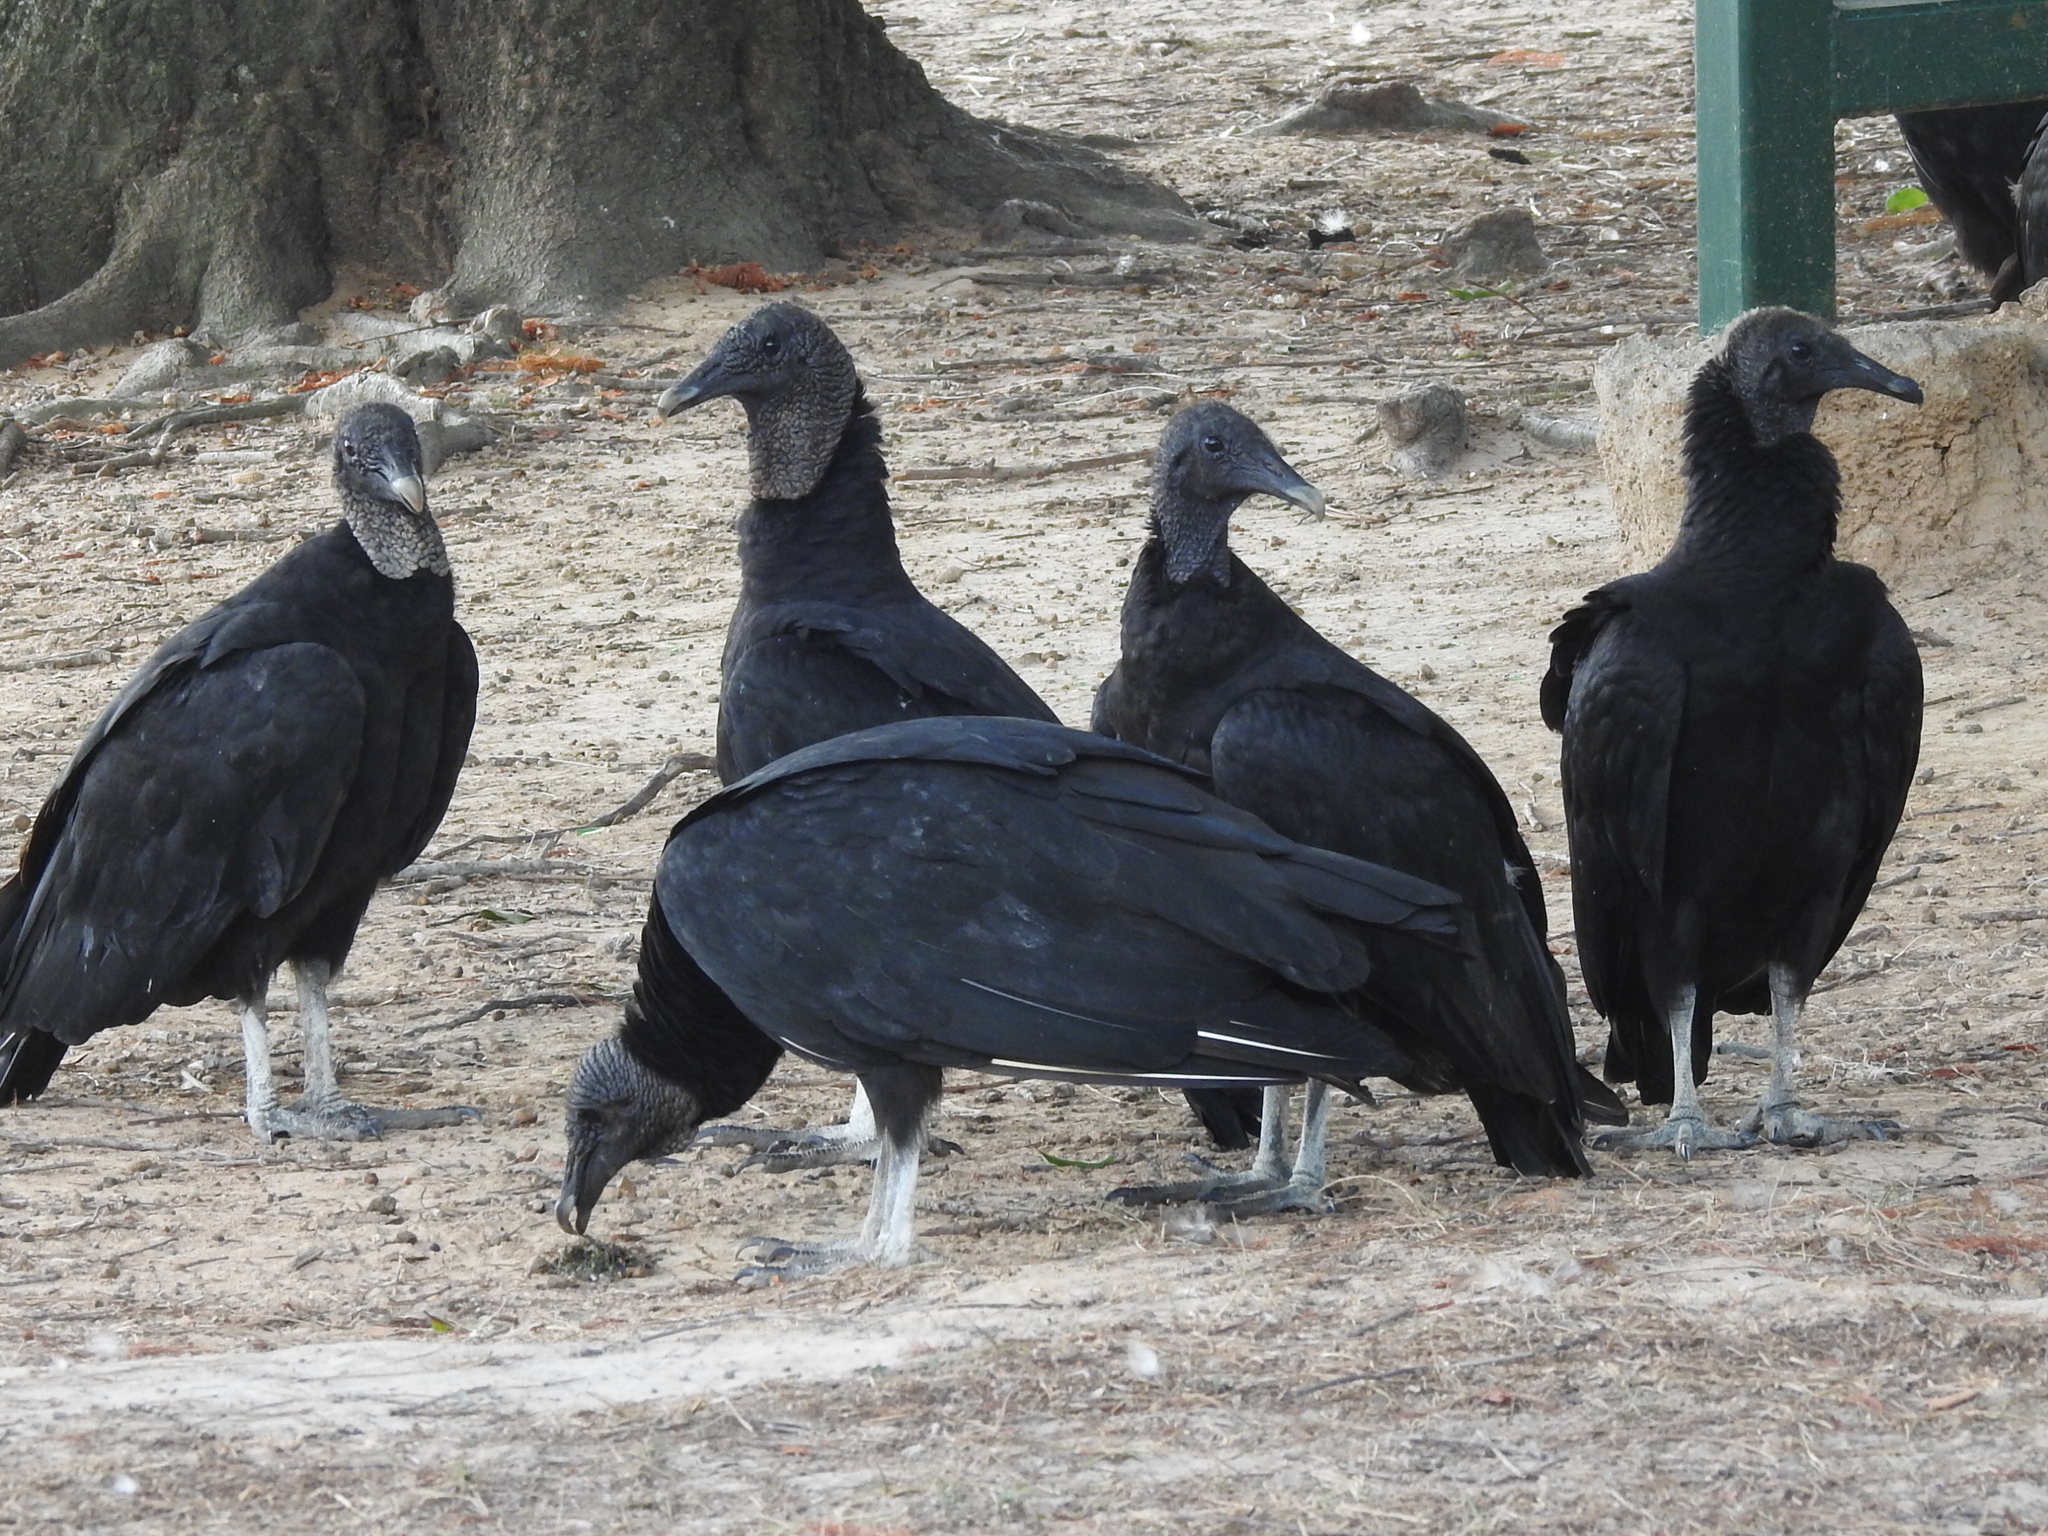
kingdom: Animalia
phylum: Chordata
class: Aves
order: Accipitriformes
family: Cathartidae
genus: Coragyps
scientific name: Coragyps atratus
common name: Black vulture
